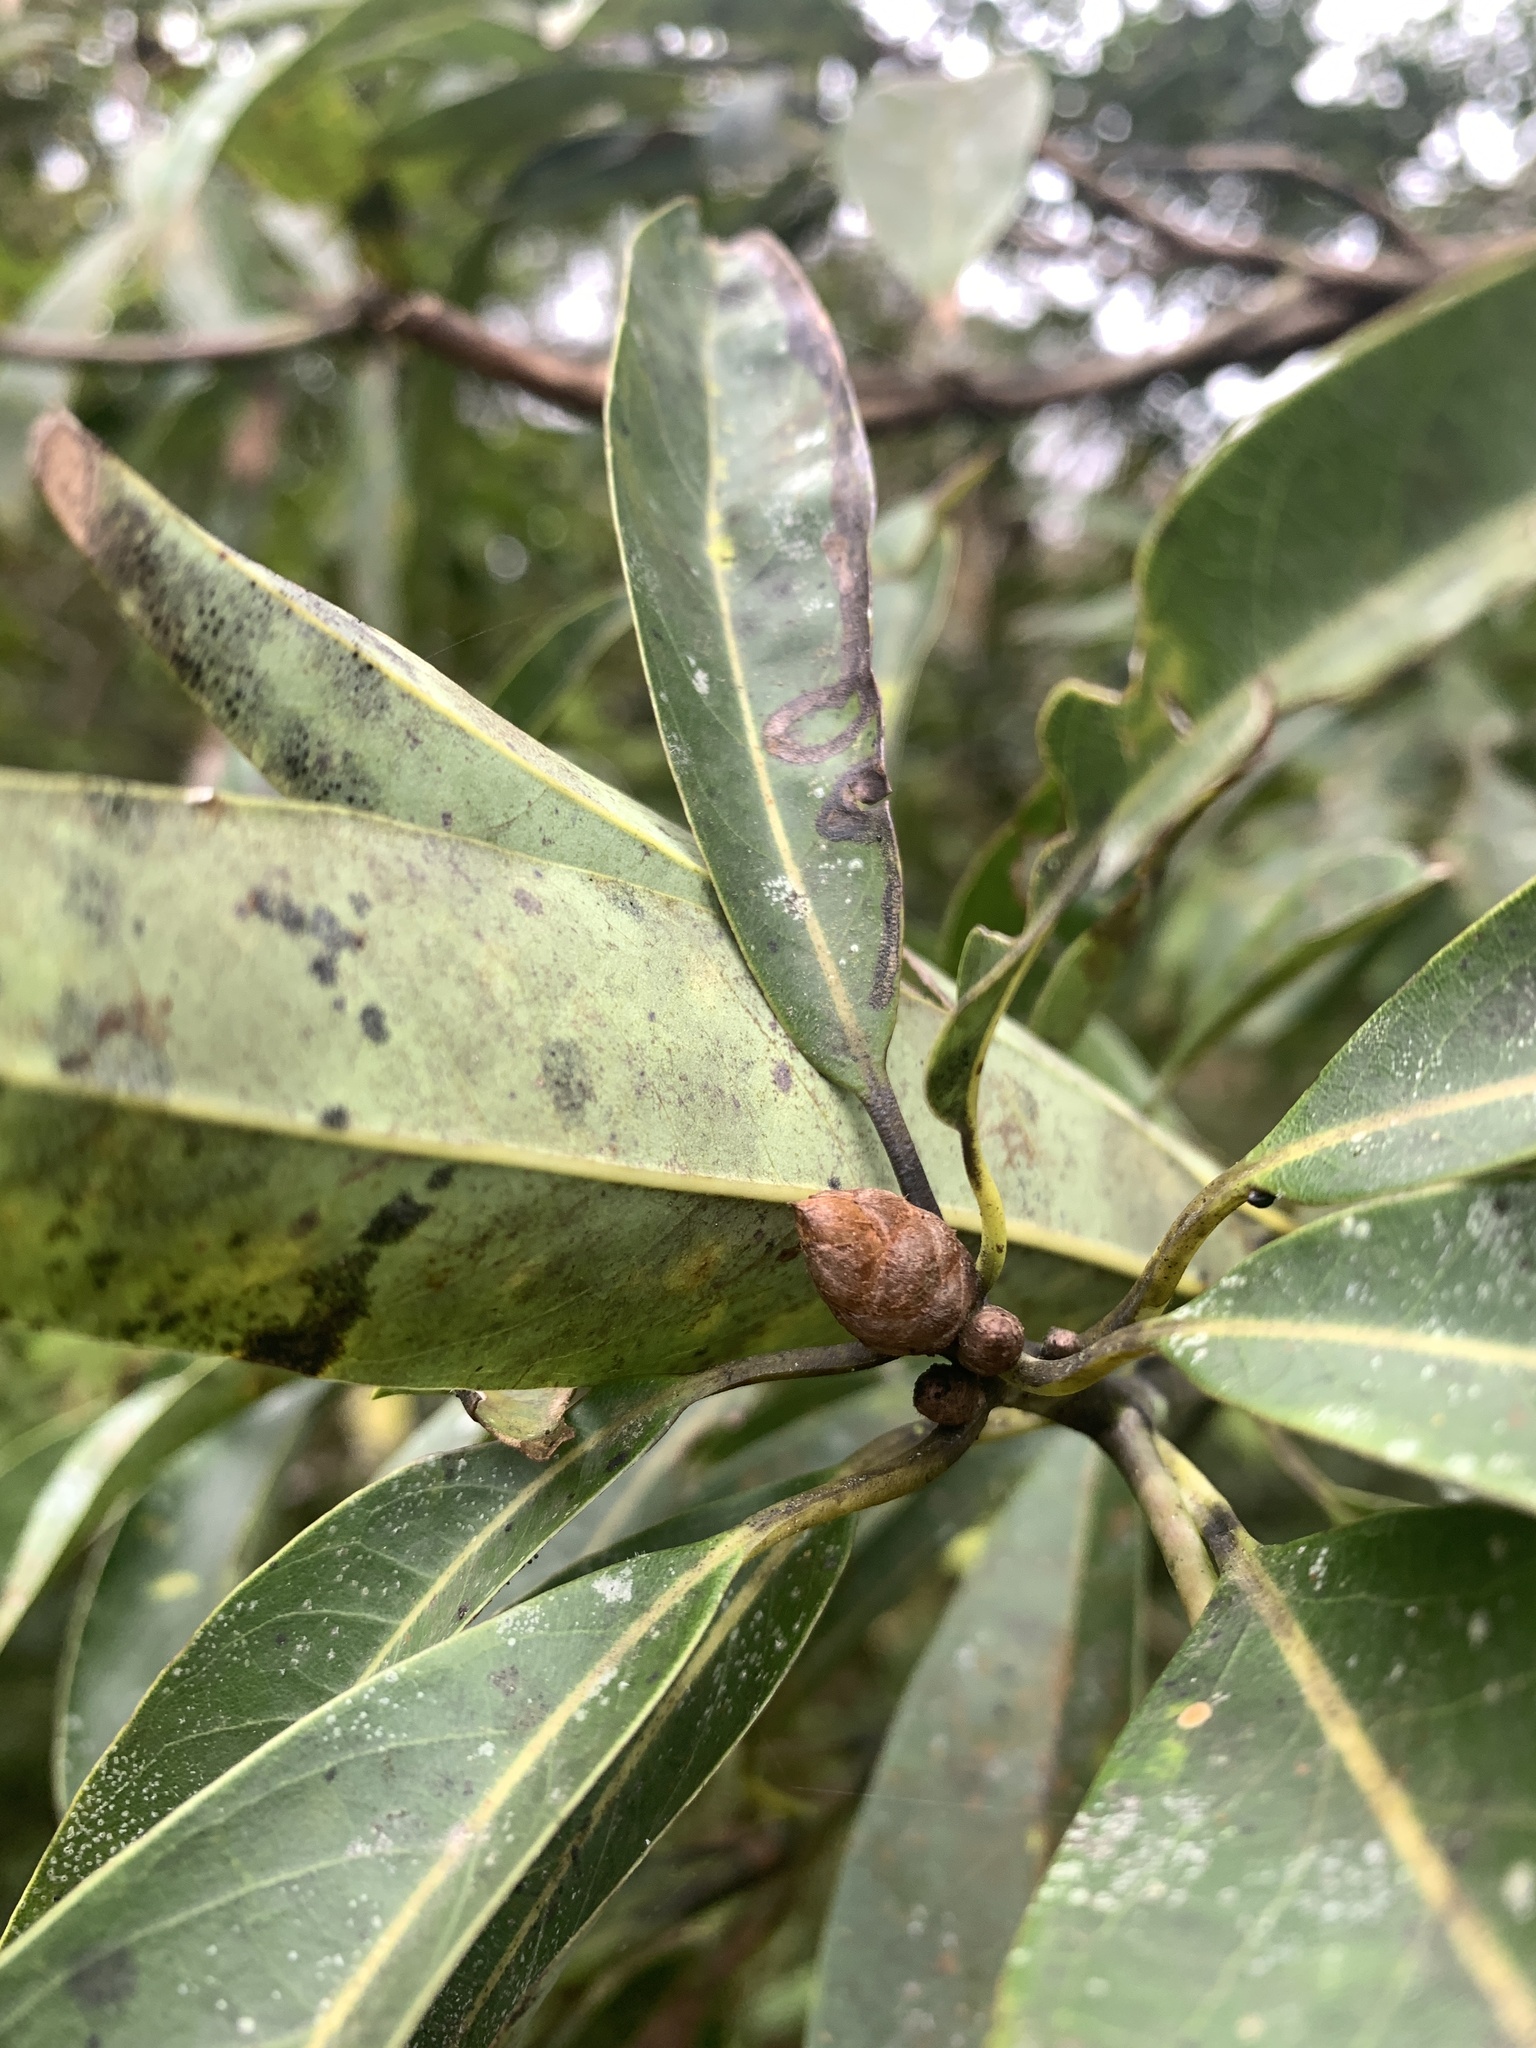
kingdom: Plantae
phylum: Tracheophyta
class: Magnoliopsida
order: Laurales
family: Lauraceae
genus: Machilus
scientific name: Machilus zuihoensis
